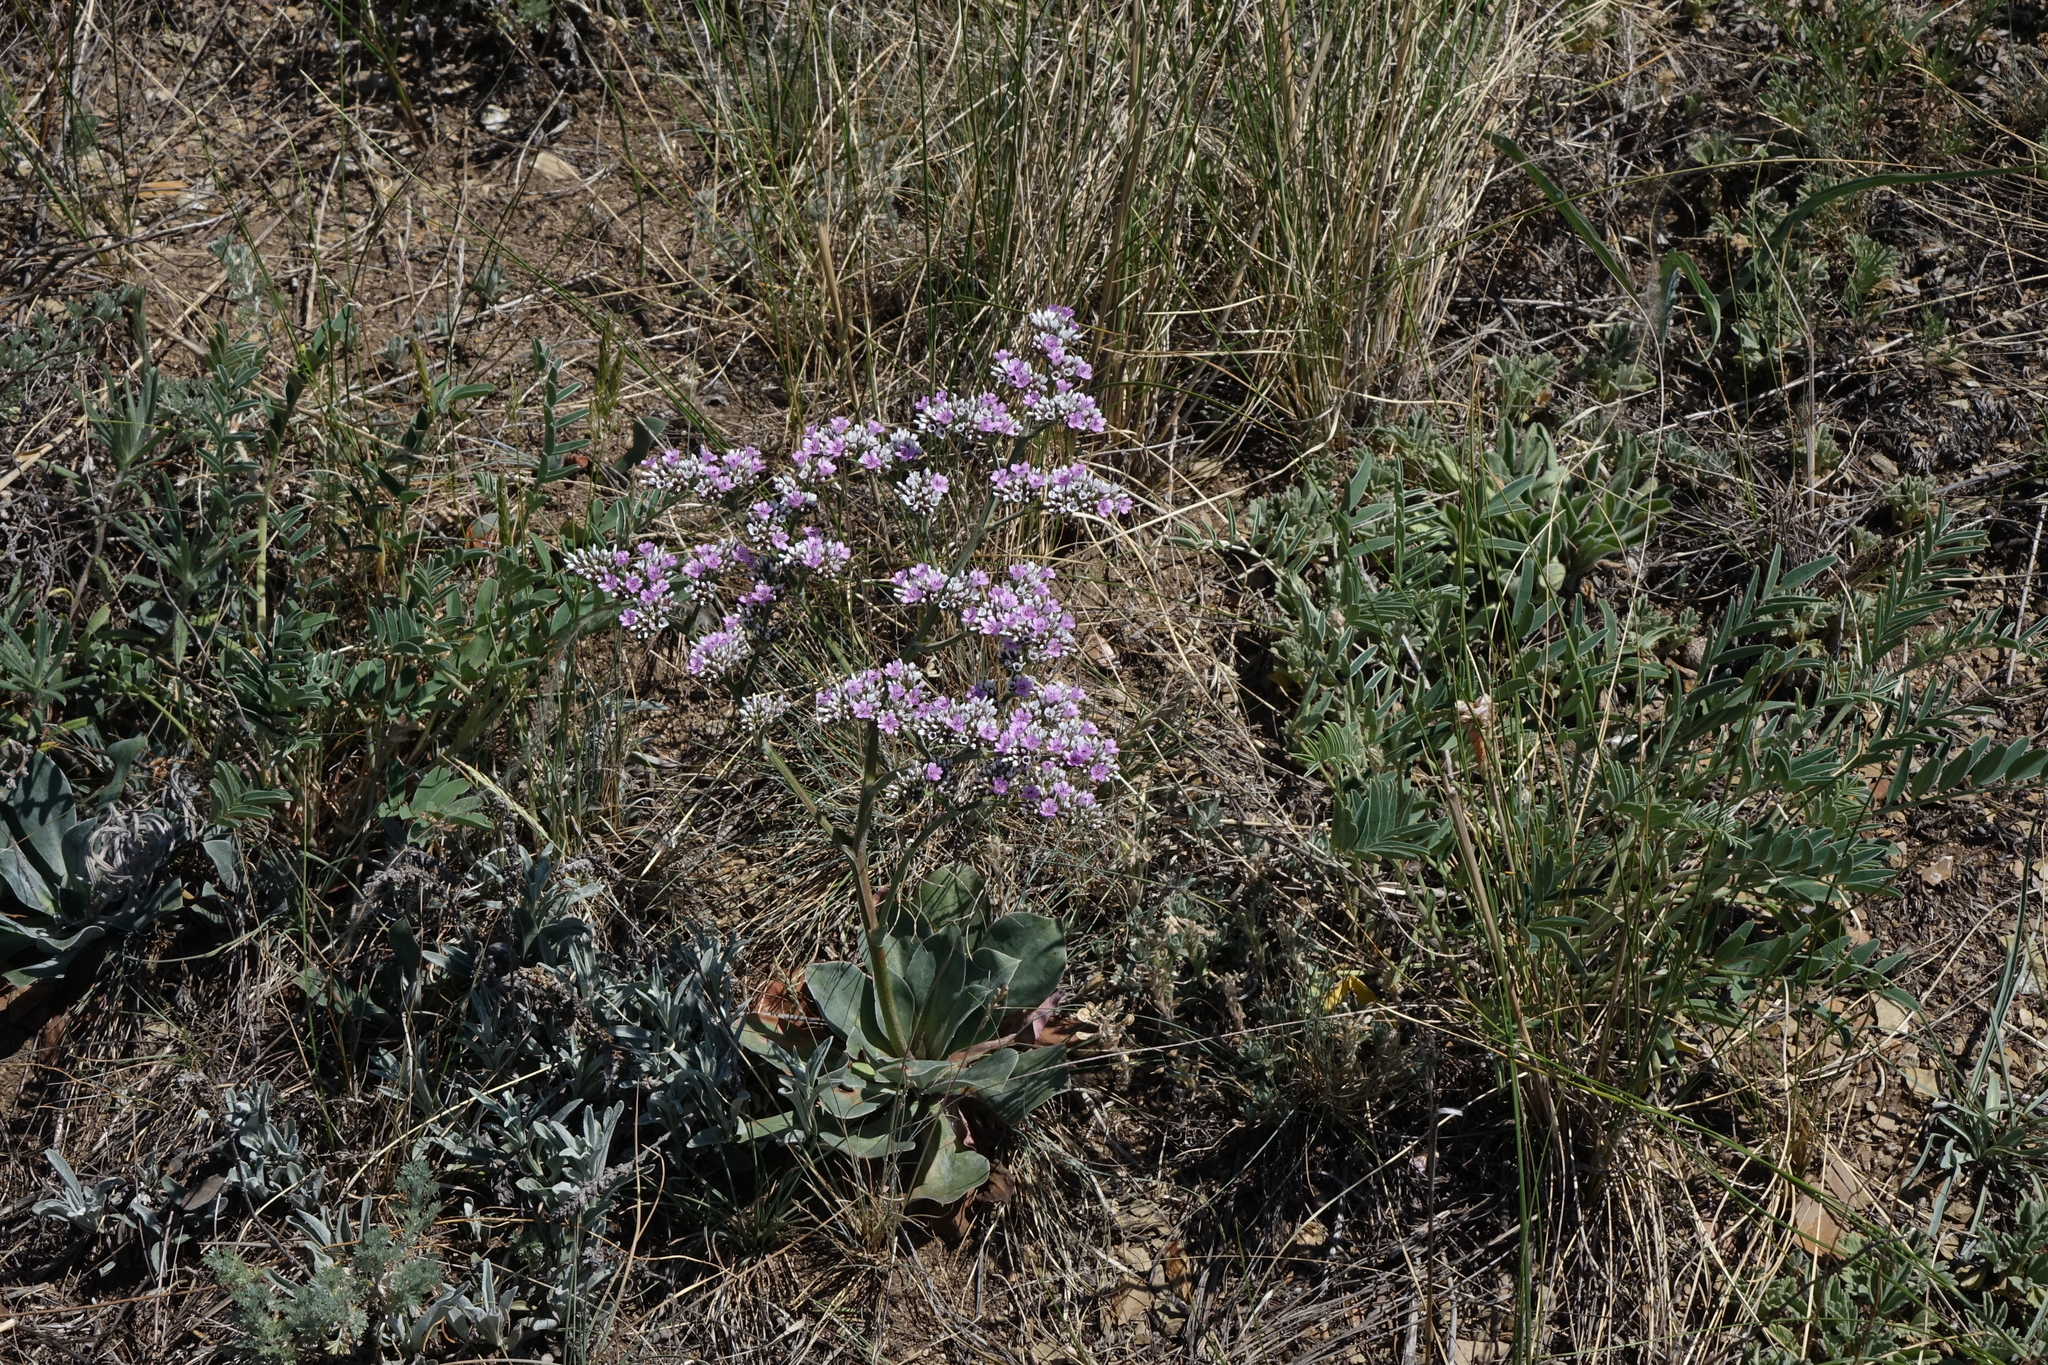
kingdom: Plantae
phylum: Tracheophyta
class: Magnoliopsida
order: Caryophyllales
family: Plumbaginaceae
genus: Goniolimon
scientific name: Goniolimon speciosum
